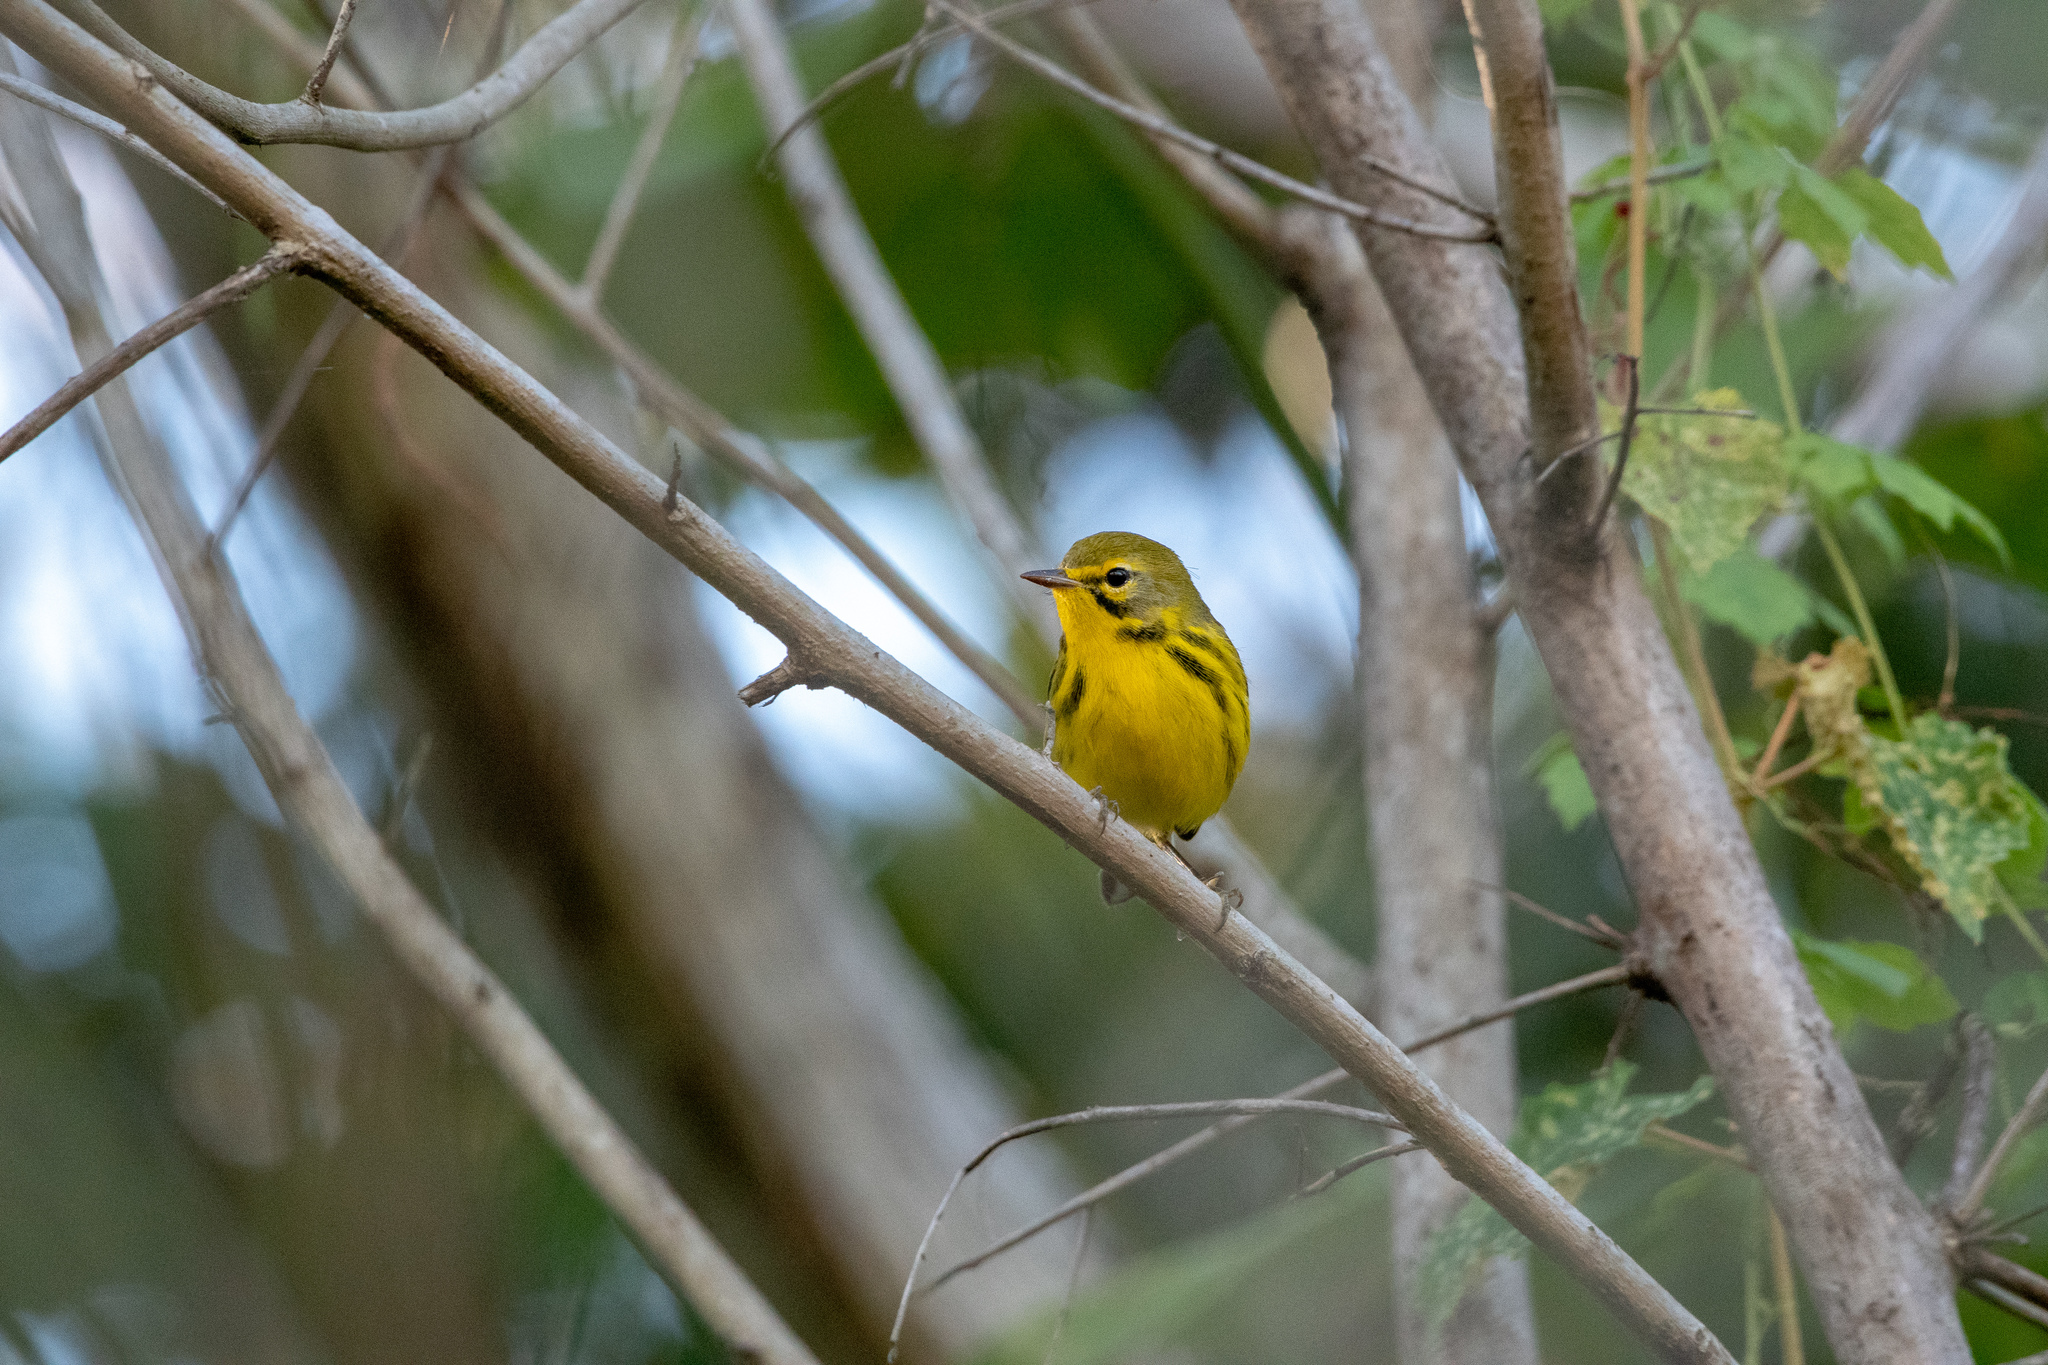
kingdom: Animalia
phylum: Chordata
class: Aves
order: Passeriformes
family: Parulidae
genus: Setophaga
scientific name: Setophaga discolor
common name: Prairie warbler
